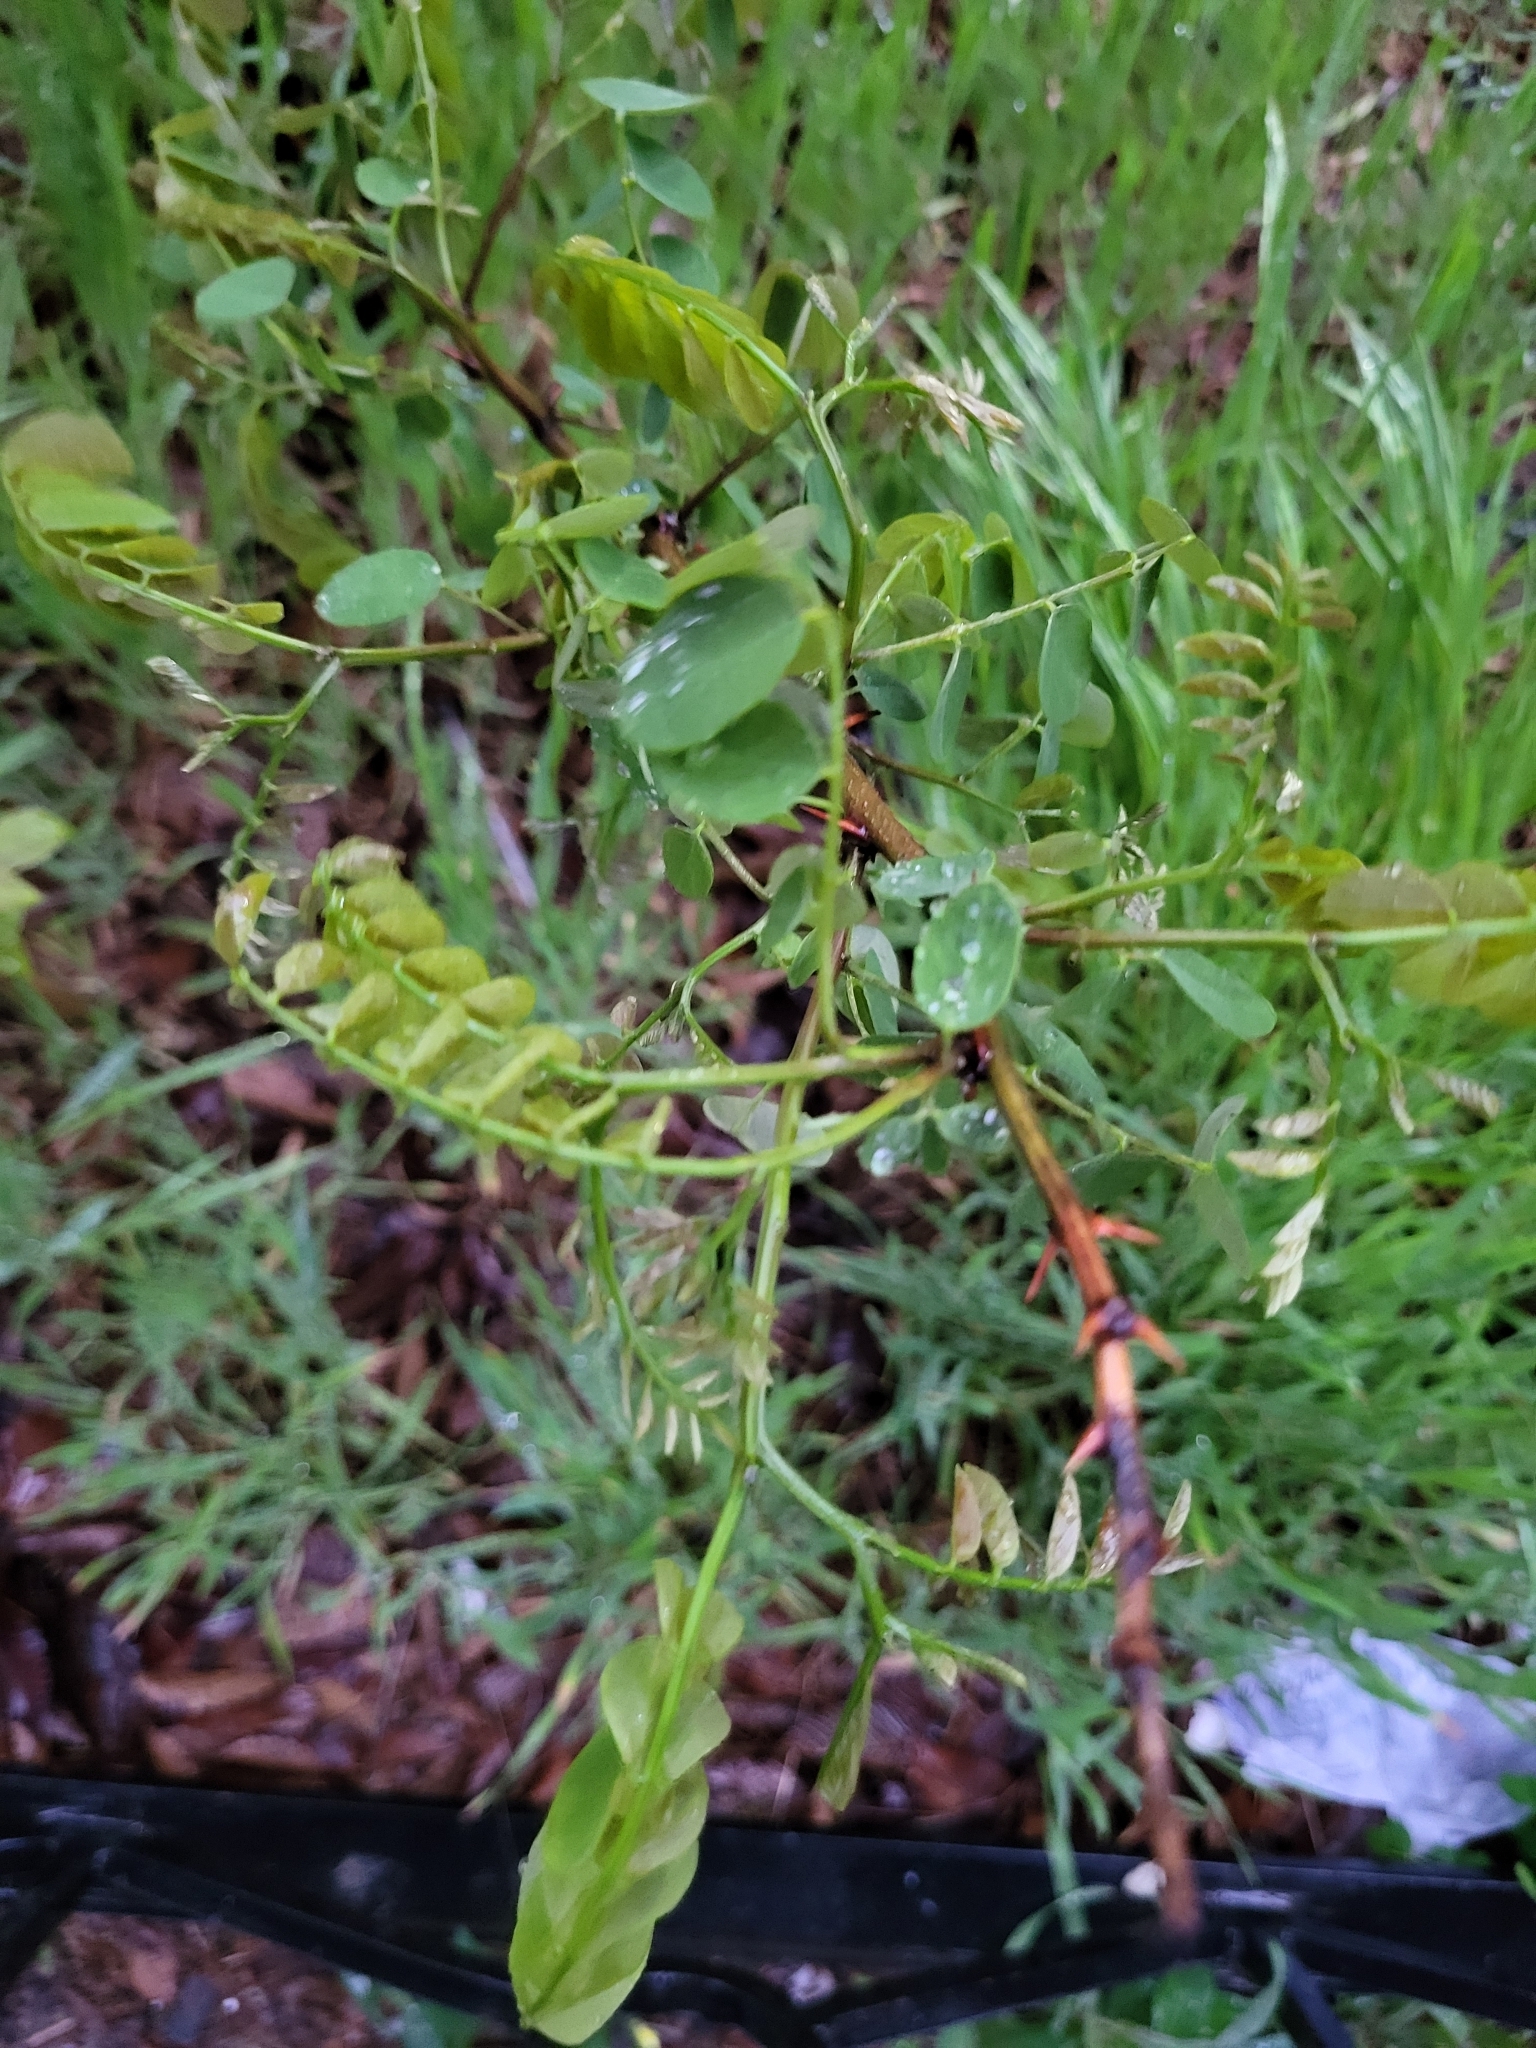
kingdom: Plantae
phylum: Tracheophyta
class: Magnoliopsida
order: Fabales
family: Fabaceae
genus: Robinia
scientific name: Robinia pseudoacacia
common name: Black locust
